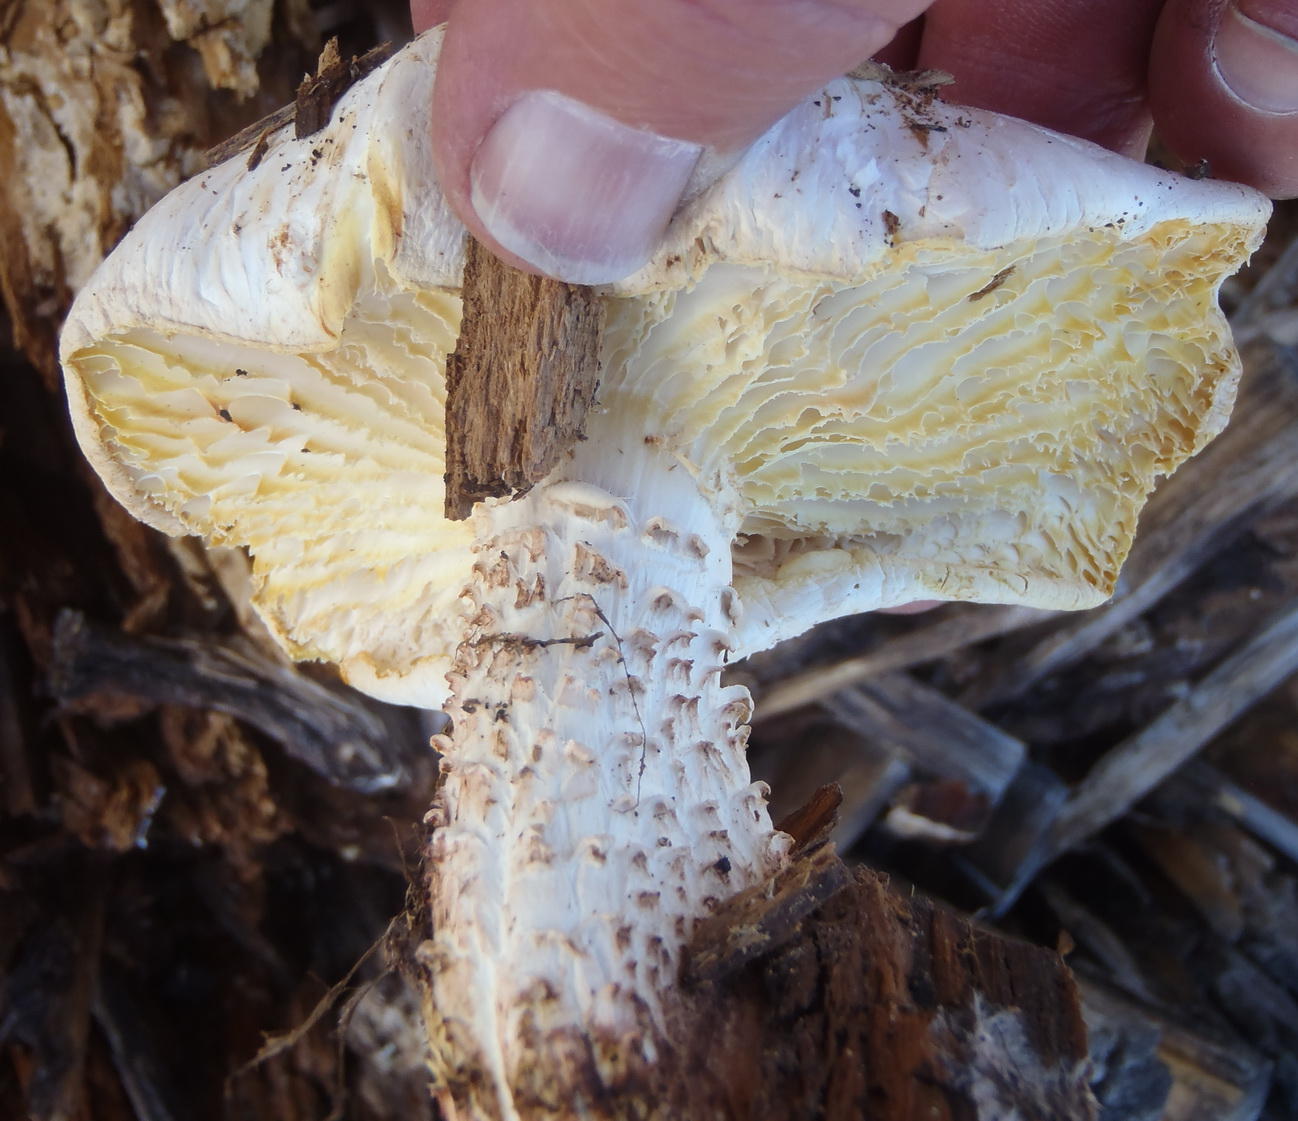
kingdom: Fungi
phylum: Basidiomycota
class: Agaricomycetes
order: Gloeophyllales
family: Gloeophyllaceae
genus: Neolentinus
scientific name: Neolentinus lepideus
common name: Scaly sawgill
